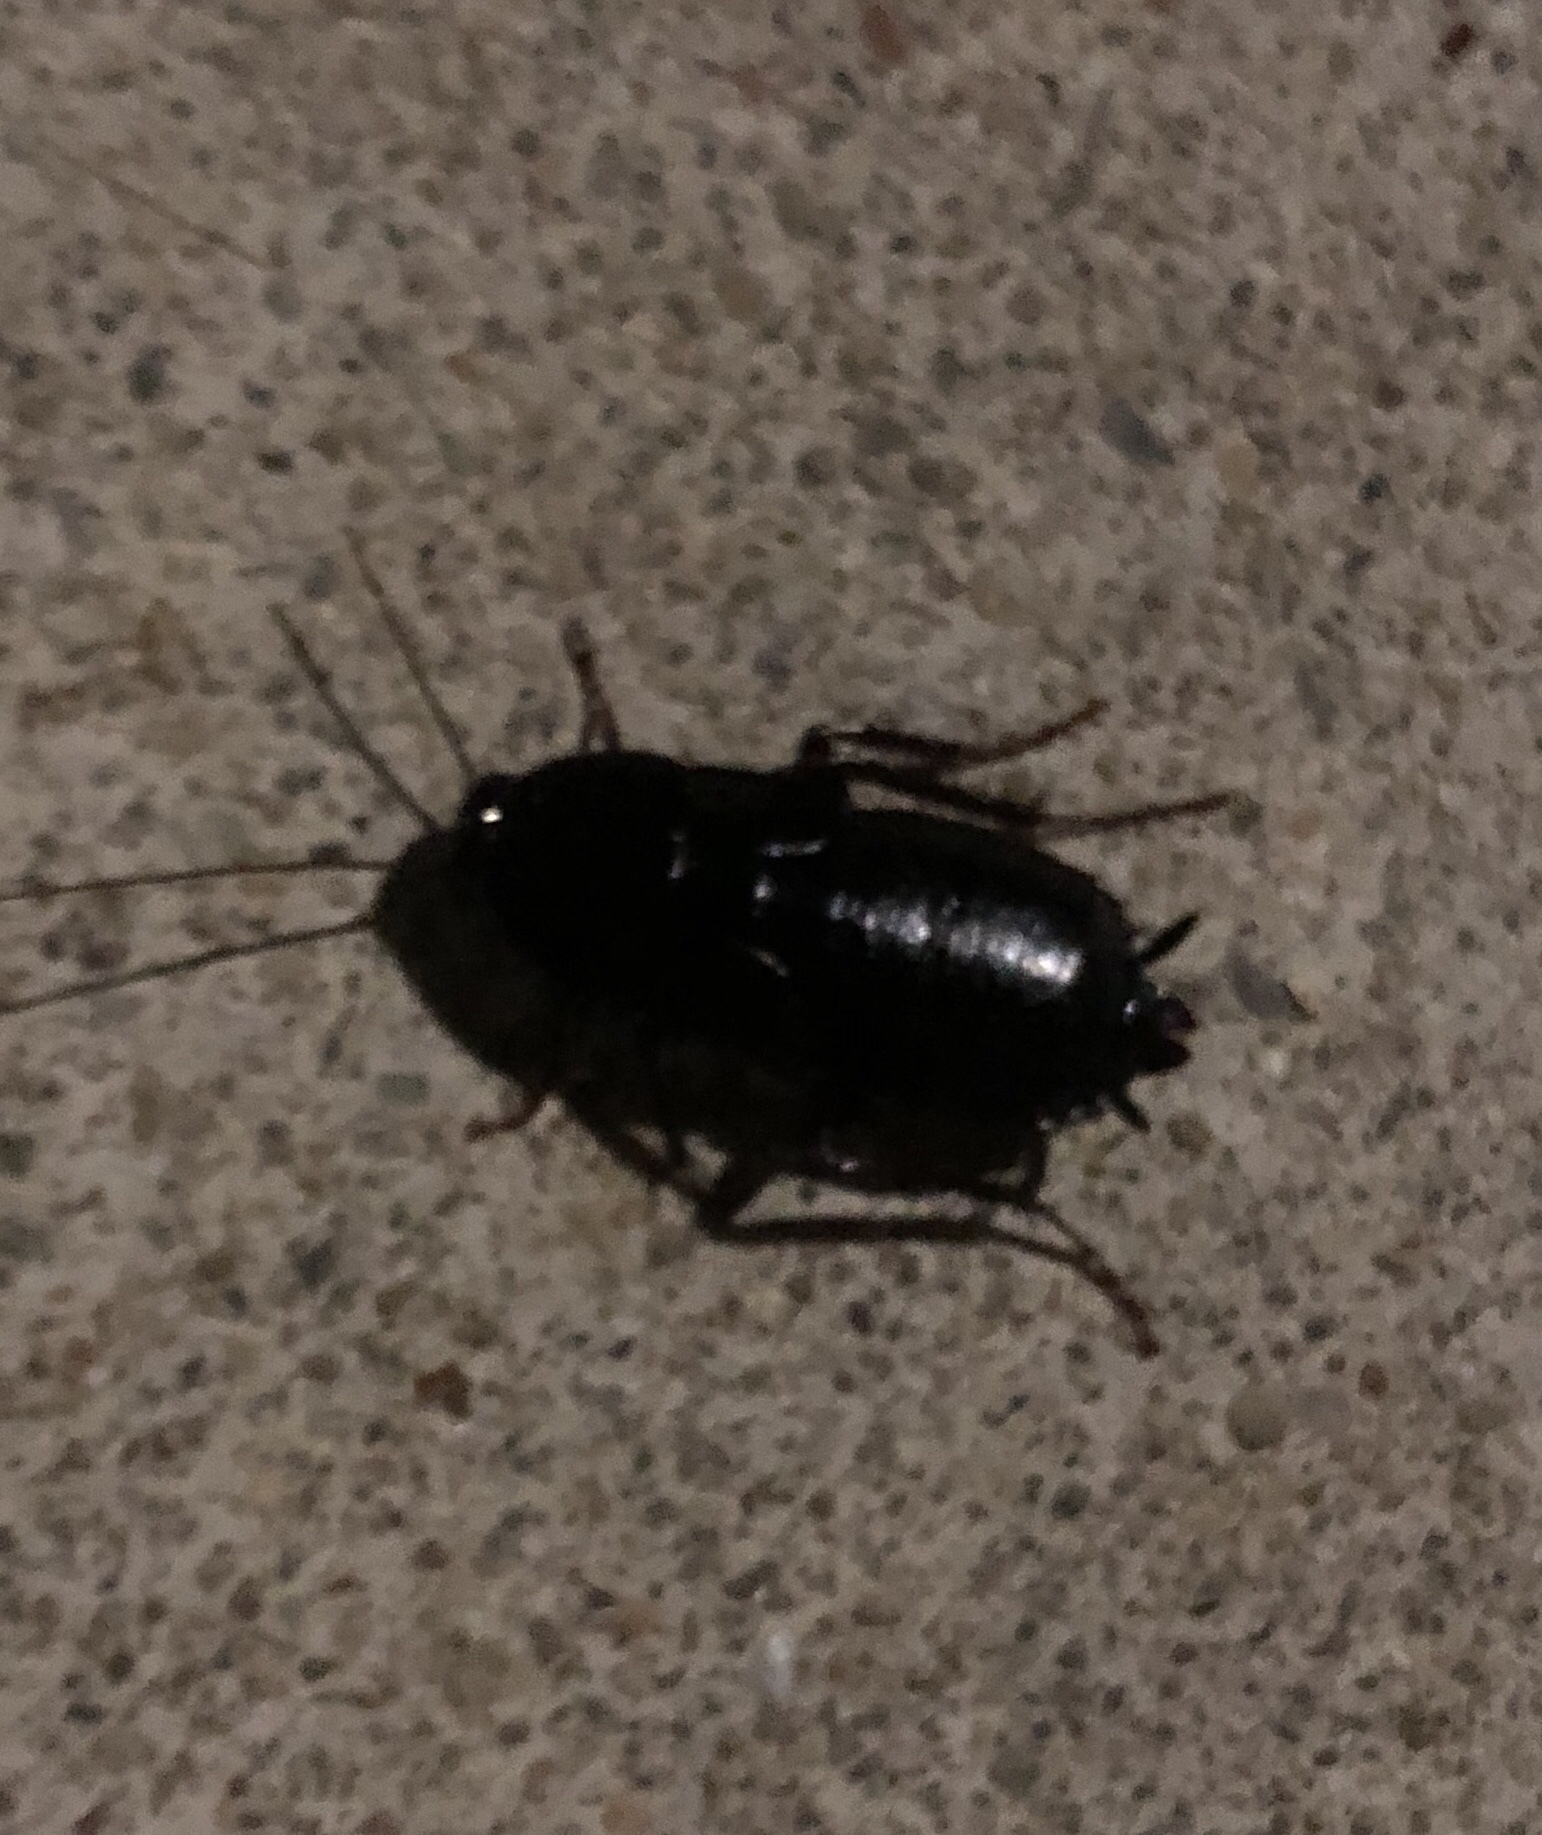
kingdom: Animalia
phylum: Arthropoda
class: Insecta
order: Blattodea
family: Blattidae
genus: Blatta
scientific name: Blatta orientalis
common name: Oriental cockroach
